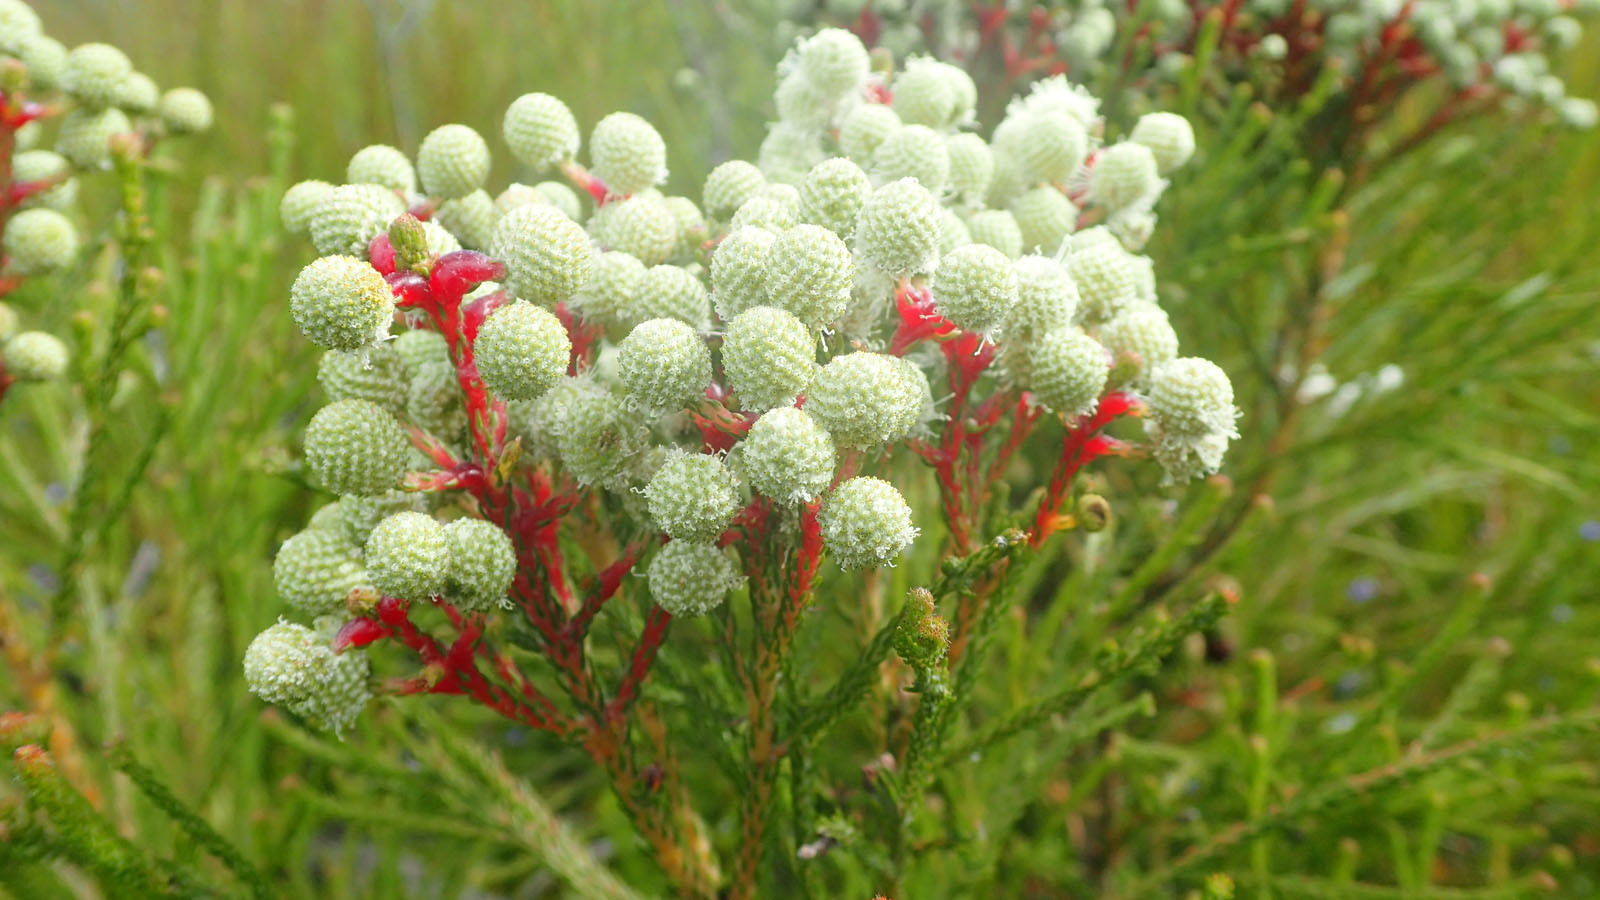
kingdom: Plantae
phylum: Tracheophyta
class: Magnoliopsida
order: Bruniales
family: Bruniaceae
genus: Berzelia
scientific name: Berzelia abrotanoides
